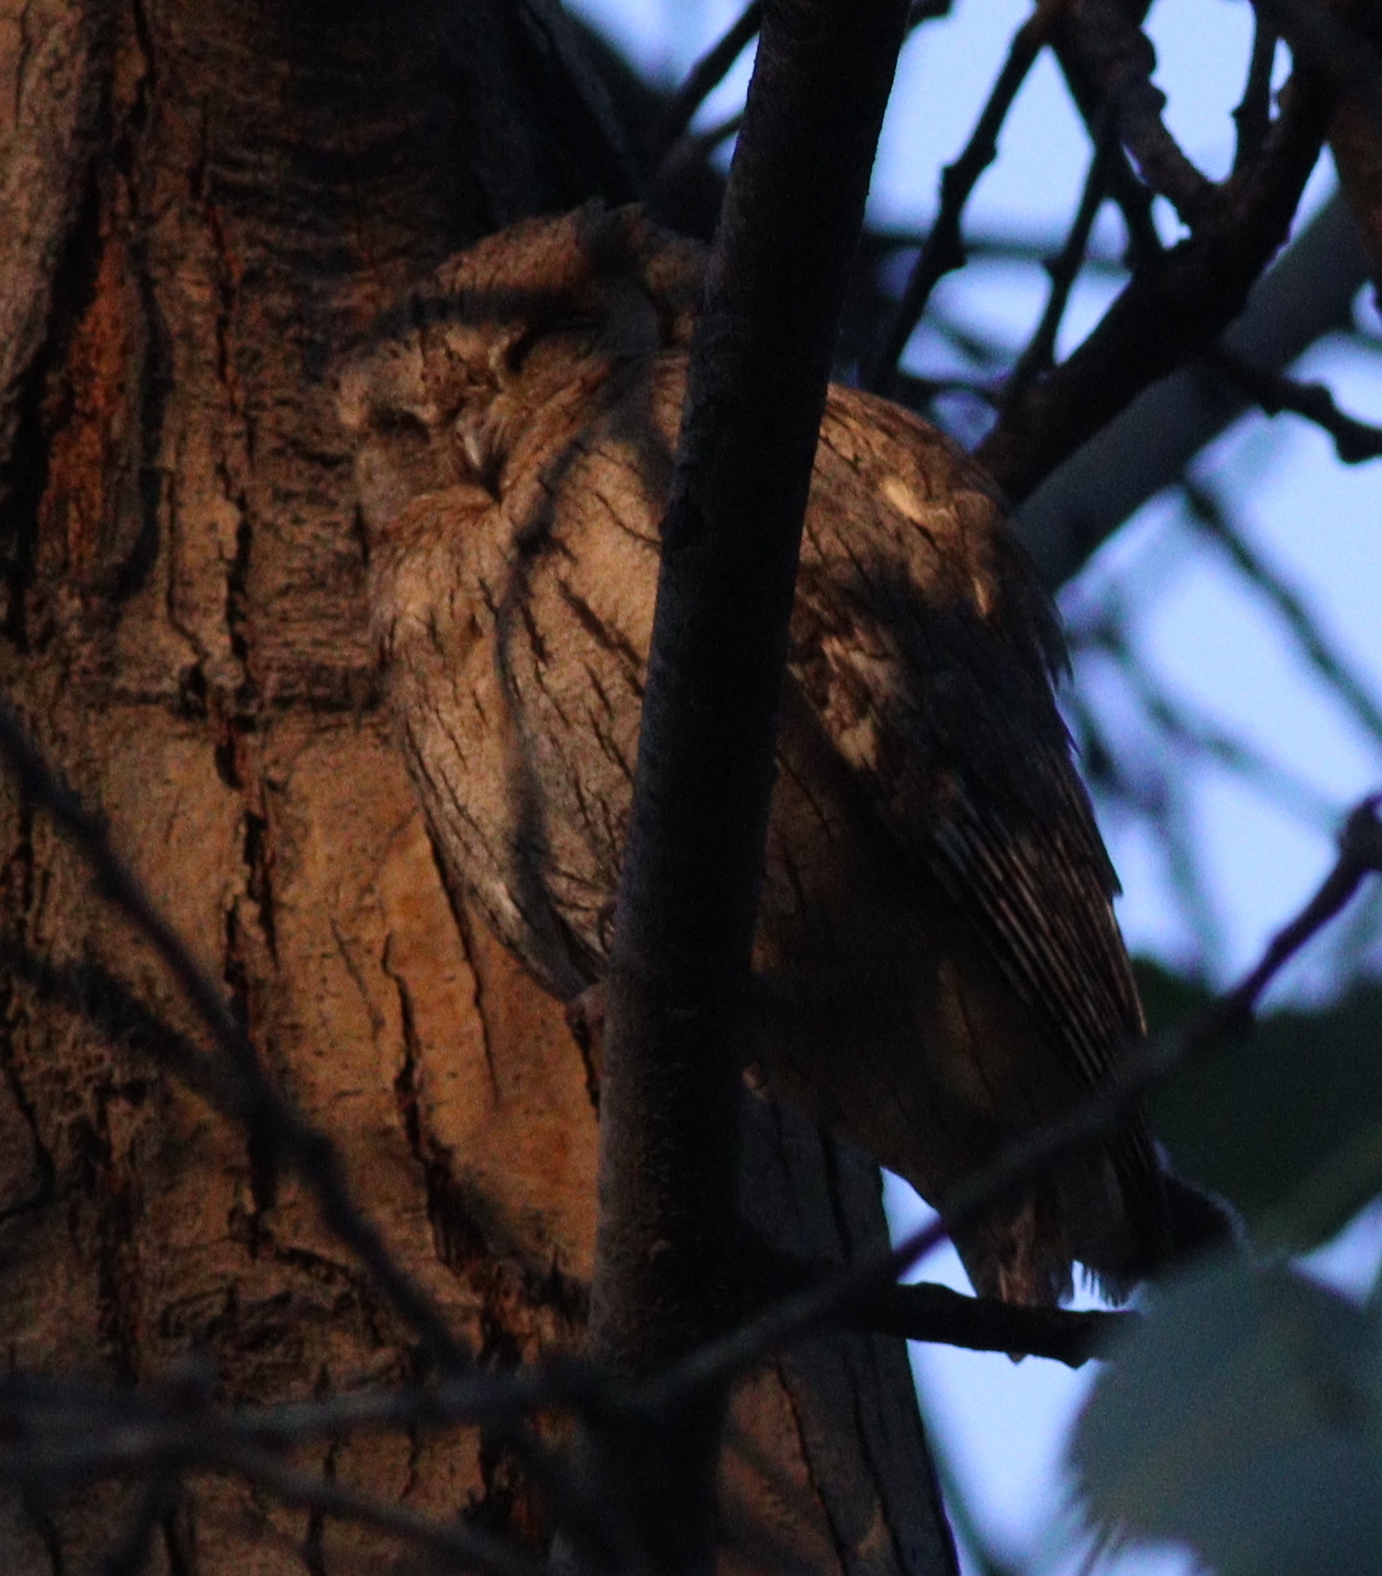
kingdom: Animalia
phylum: Chordata
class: Aves
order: Strigiformes
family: Strigidae
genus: Otus
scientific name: Otus brucei
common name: Pallid scops owl
